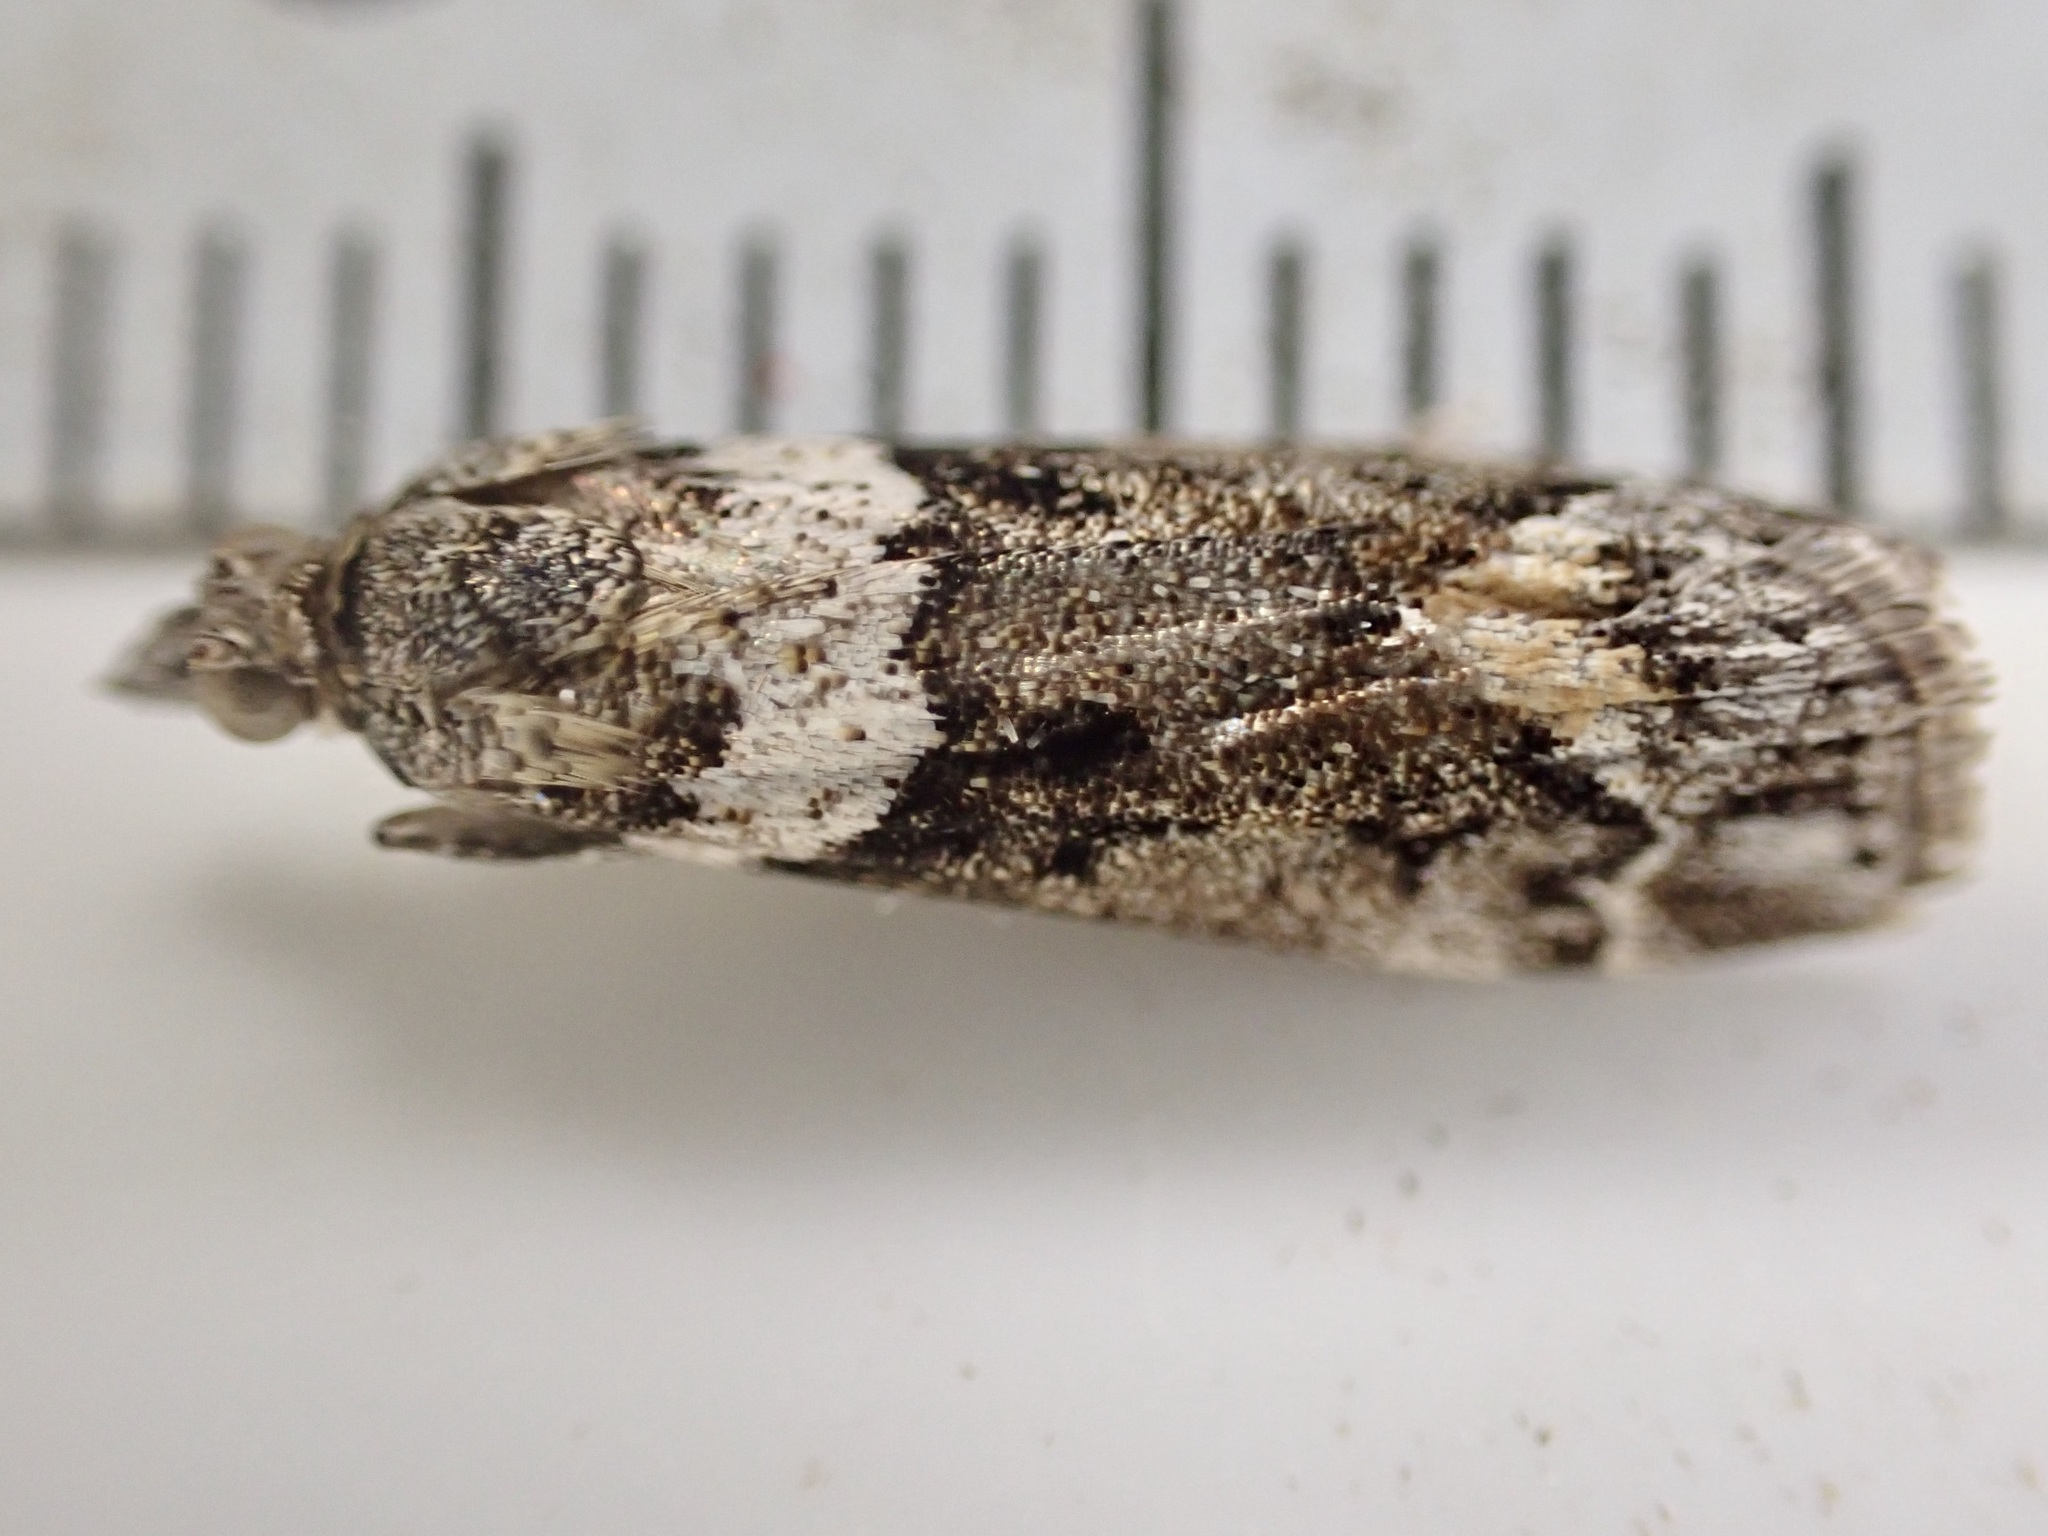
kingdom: Animalia
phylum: Arthropoda
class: Insecta
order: Lepidoptera
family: Crambidae
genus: Eudonia
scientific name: Eudonia submarginalis
